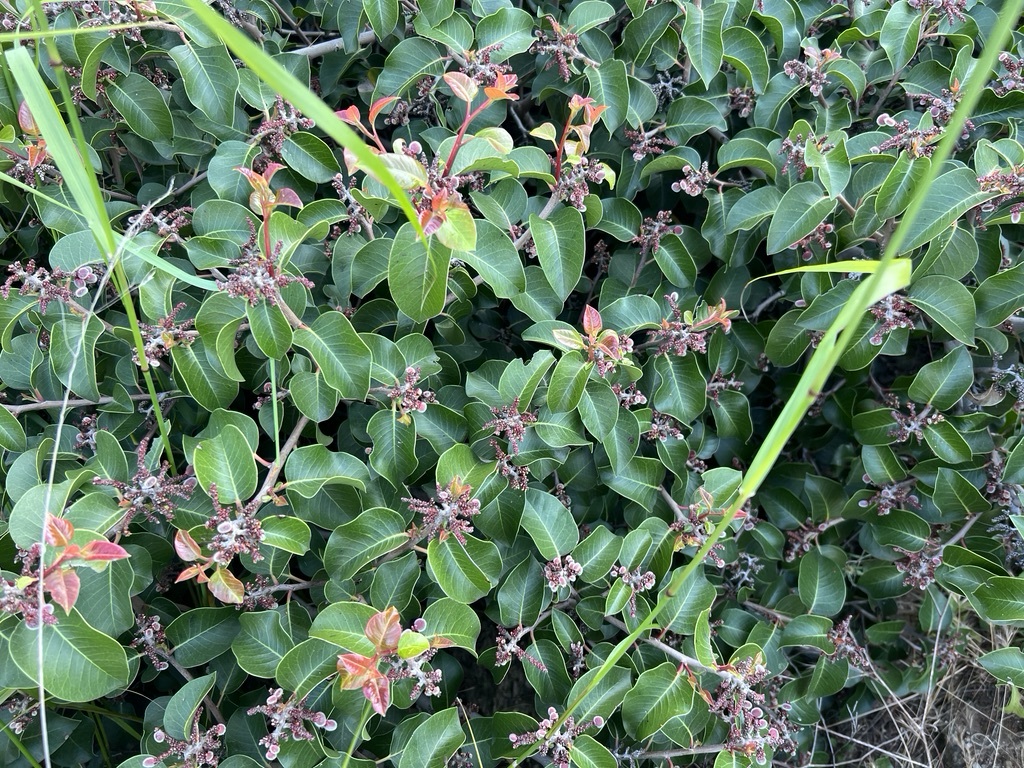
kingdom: Plantae
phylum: Tracheophyta
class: Magnoliopsida
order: Sapindales
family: Anacardiaceae
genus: Rhus
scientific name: Rhus ovata
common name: Sugar sumac
